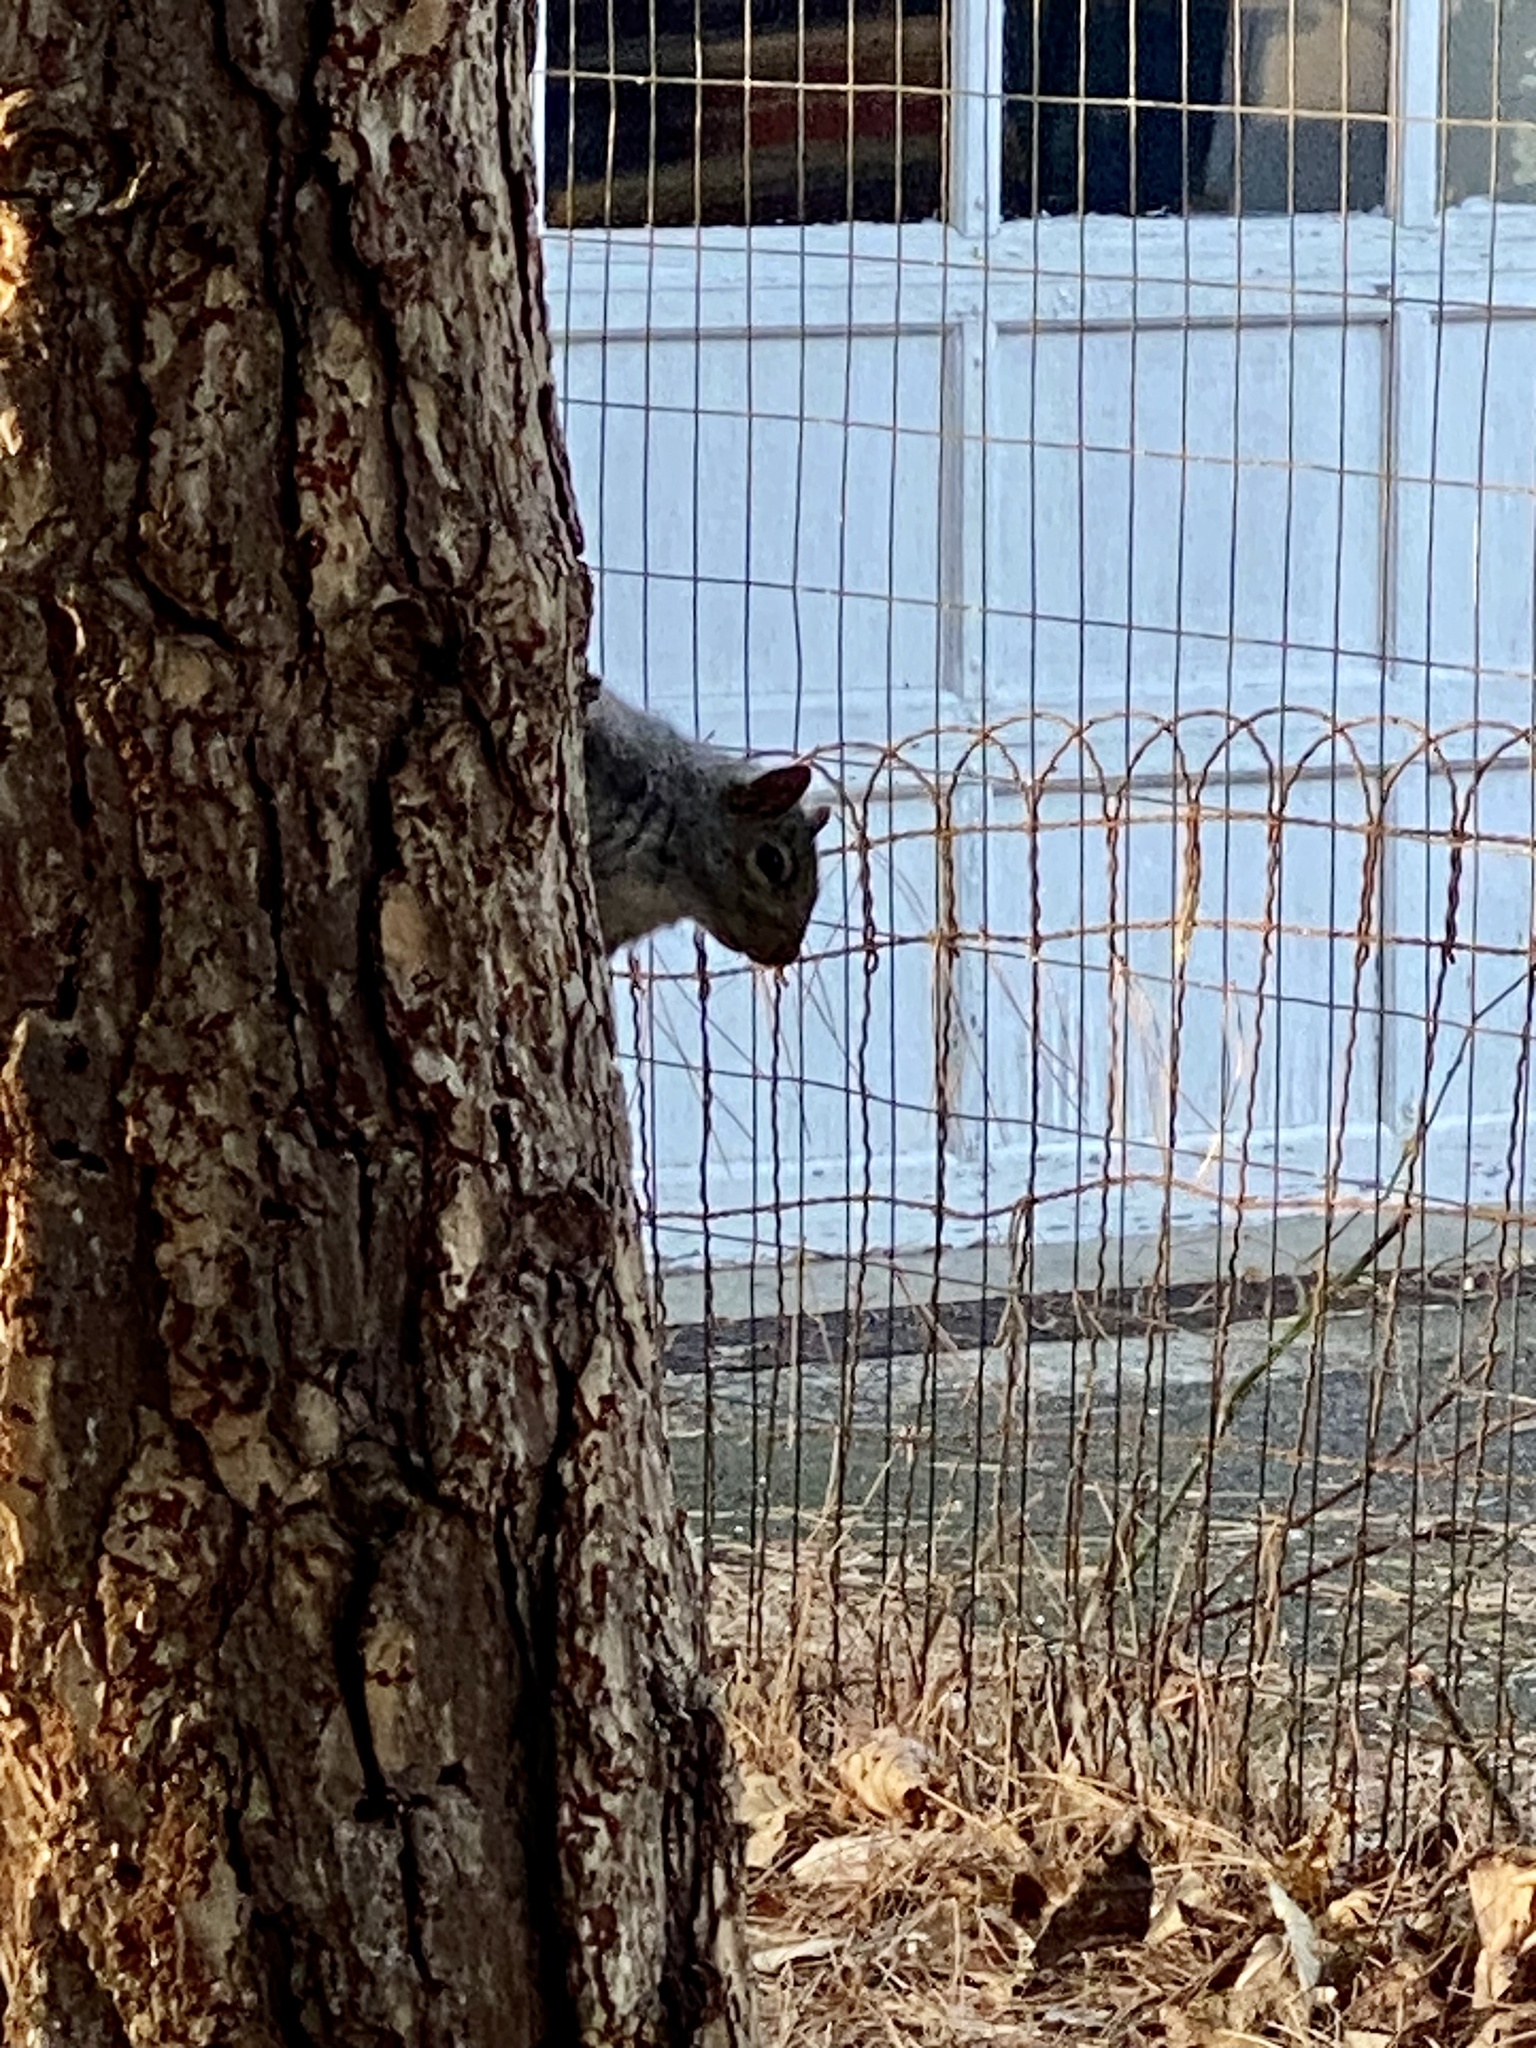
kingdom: Animalia
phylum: Chordata
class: Mammalia
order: Rodentia
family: Sciuridae
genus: Sciurus
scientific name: Sciurus carolinensis
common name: Eastern gray squirrel
